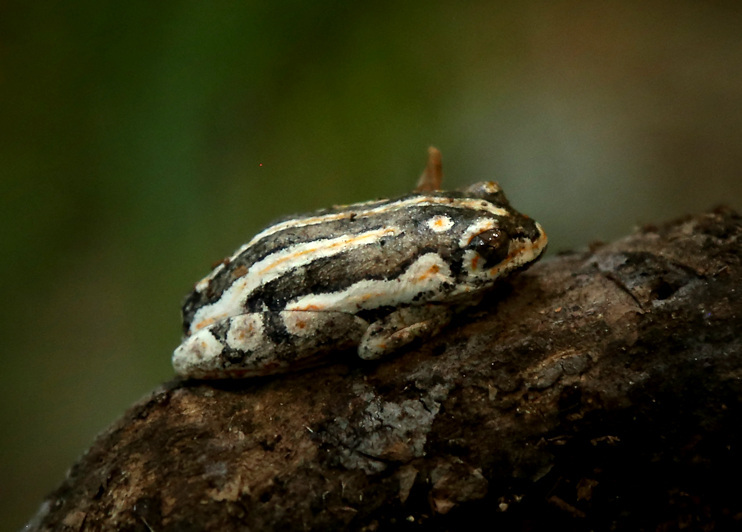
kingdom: Animalia
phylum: Chordata
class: Amphibia
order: Anura
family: Hyperoliidae
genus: Hyperolius
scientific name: Hyperolius marmoratus
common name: Painted reed frog
